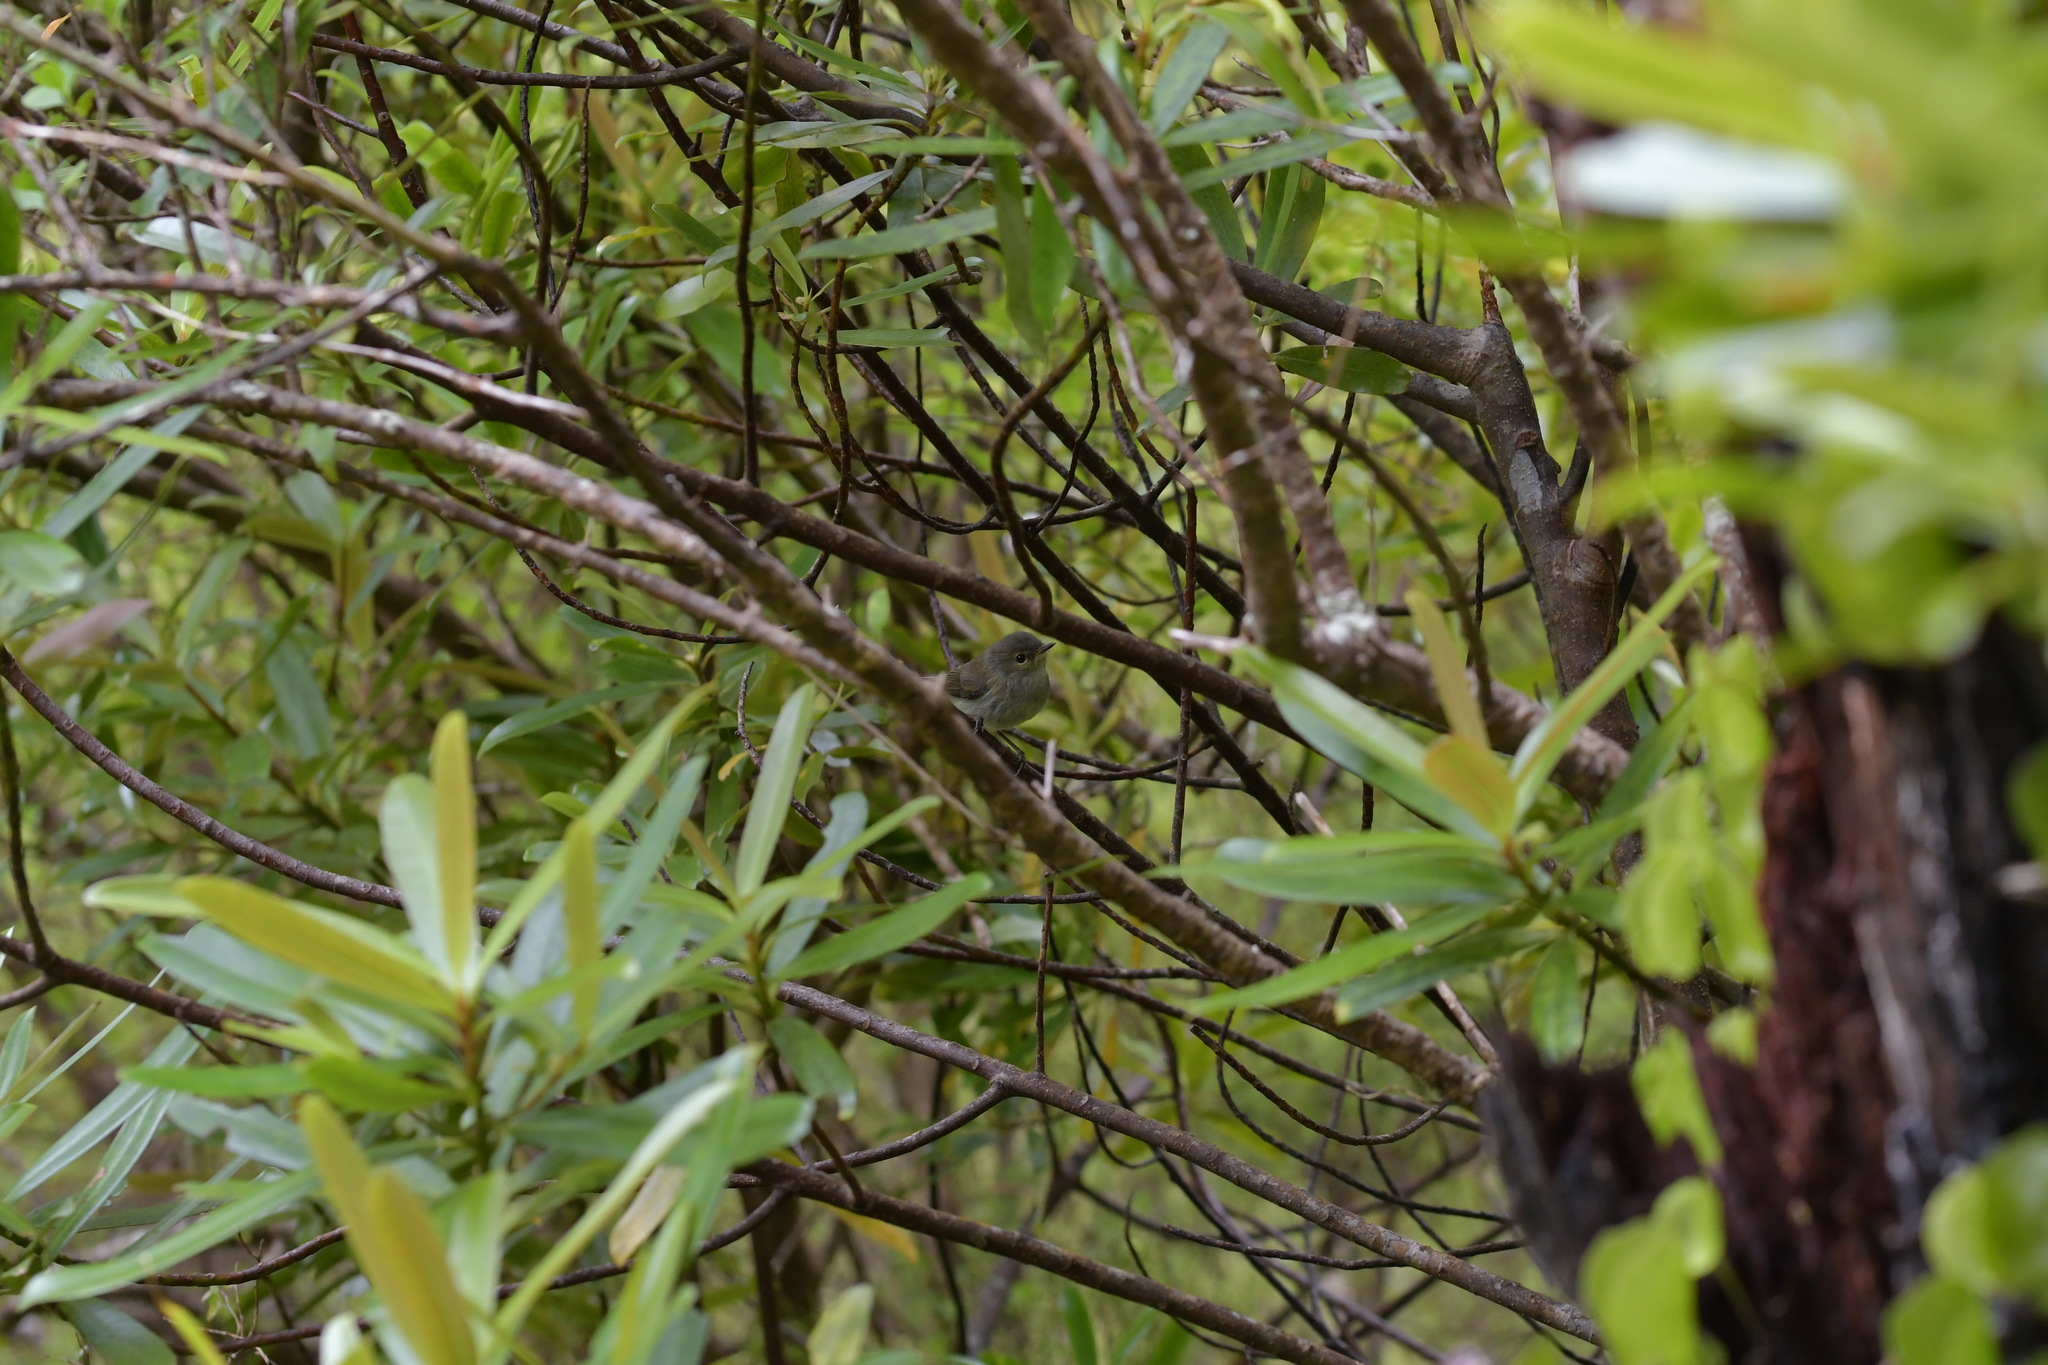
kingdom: Animalia
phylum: Chordata
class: Aves
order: Passeriformes
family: Acanthizidae
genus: Gerygone
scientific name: Gerygone igata
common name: Grey gerygone
